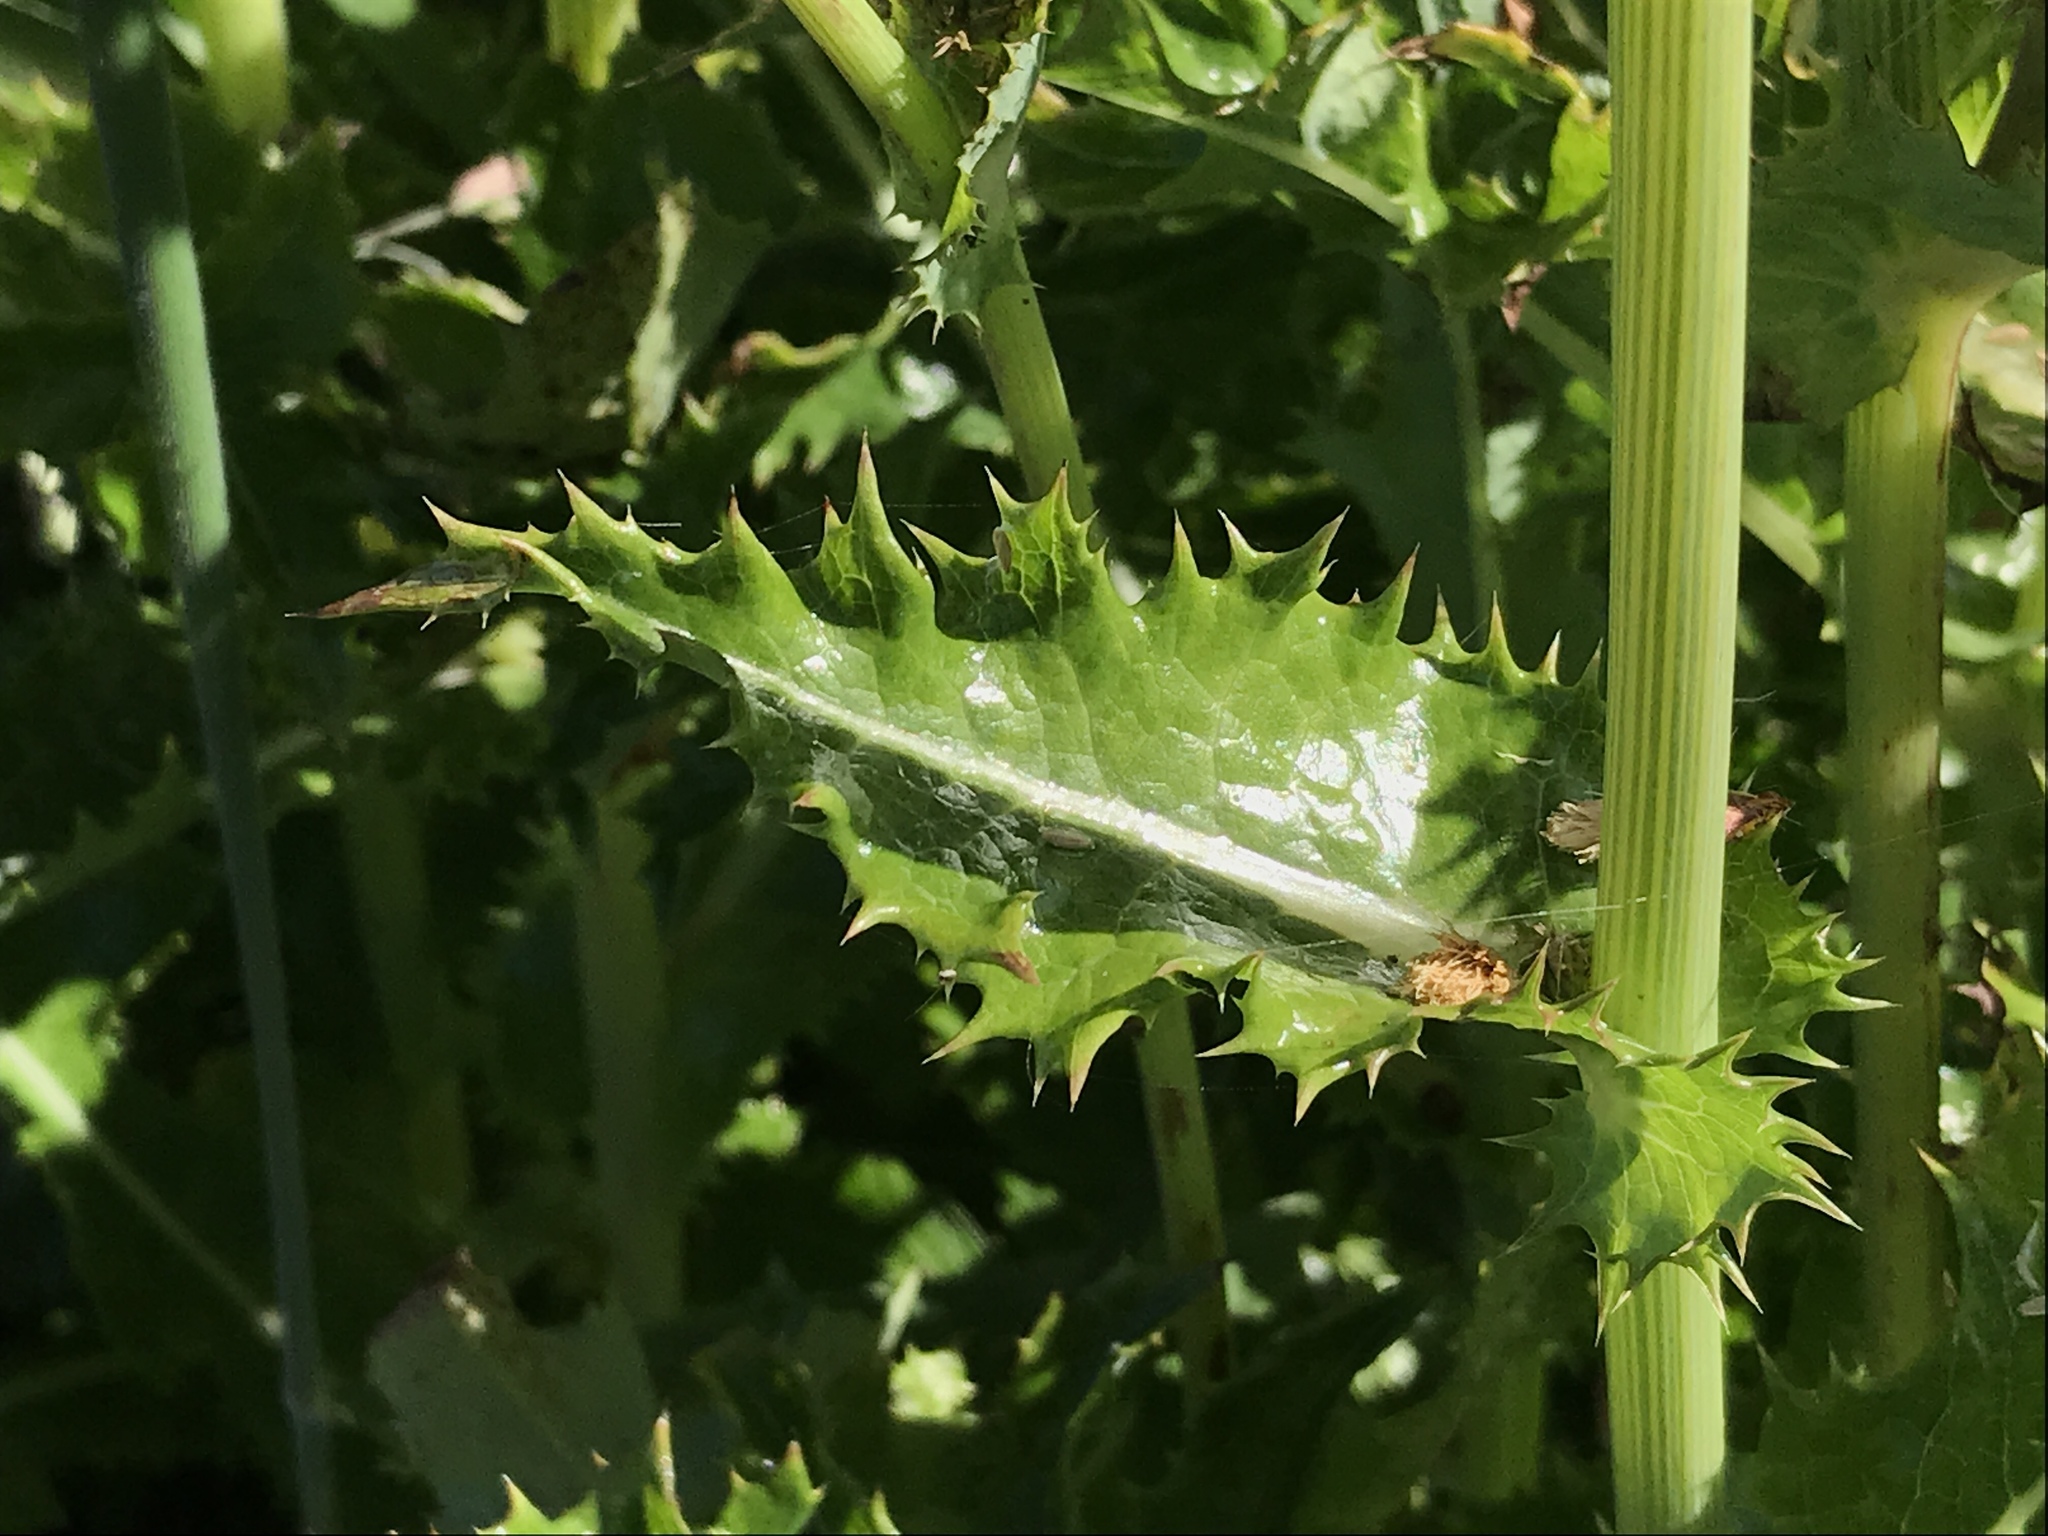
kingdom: Plantae
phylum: Tracheophyta
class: Magnoliopsida
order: Asterales
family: Asteraceae
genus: Sonchus
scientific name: Sonchus asper
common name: Prickly sow-thistle
